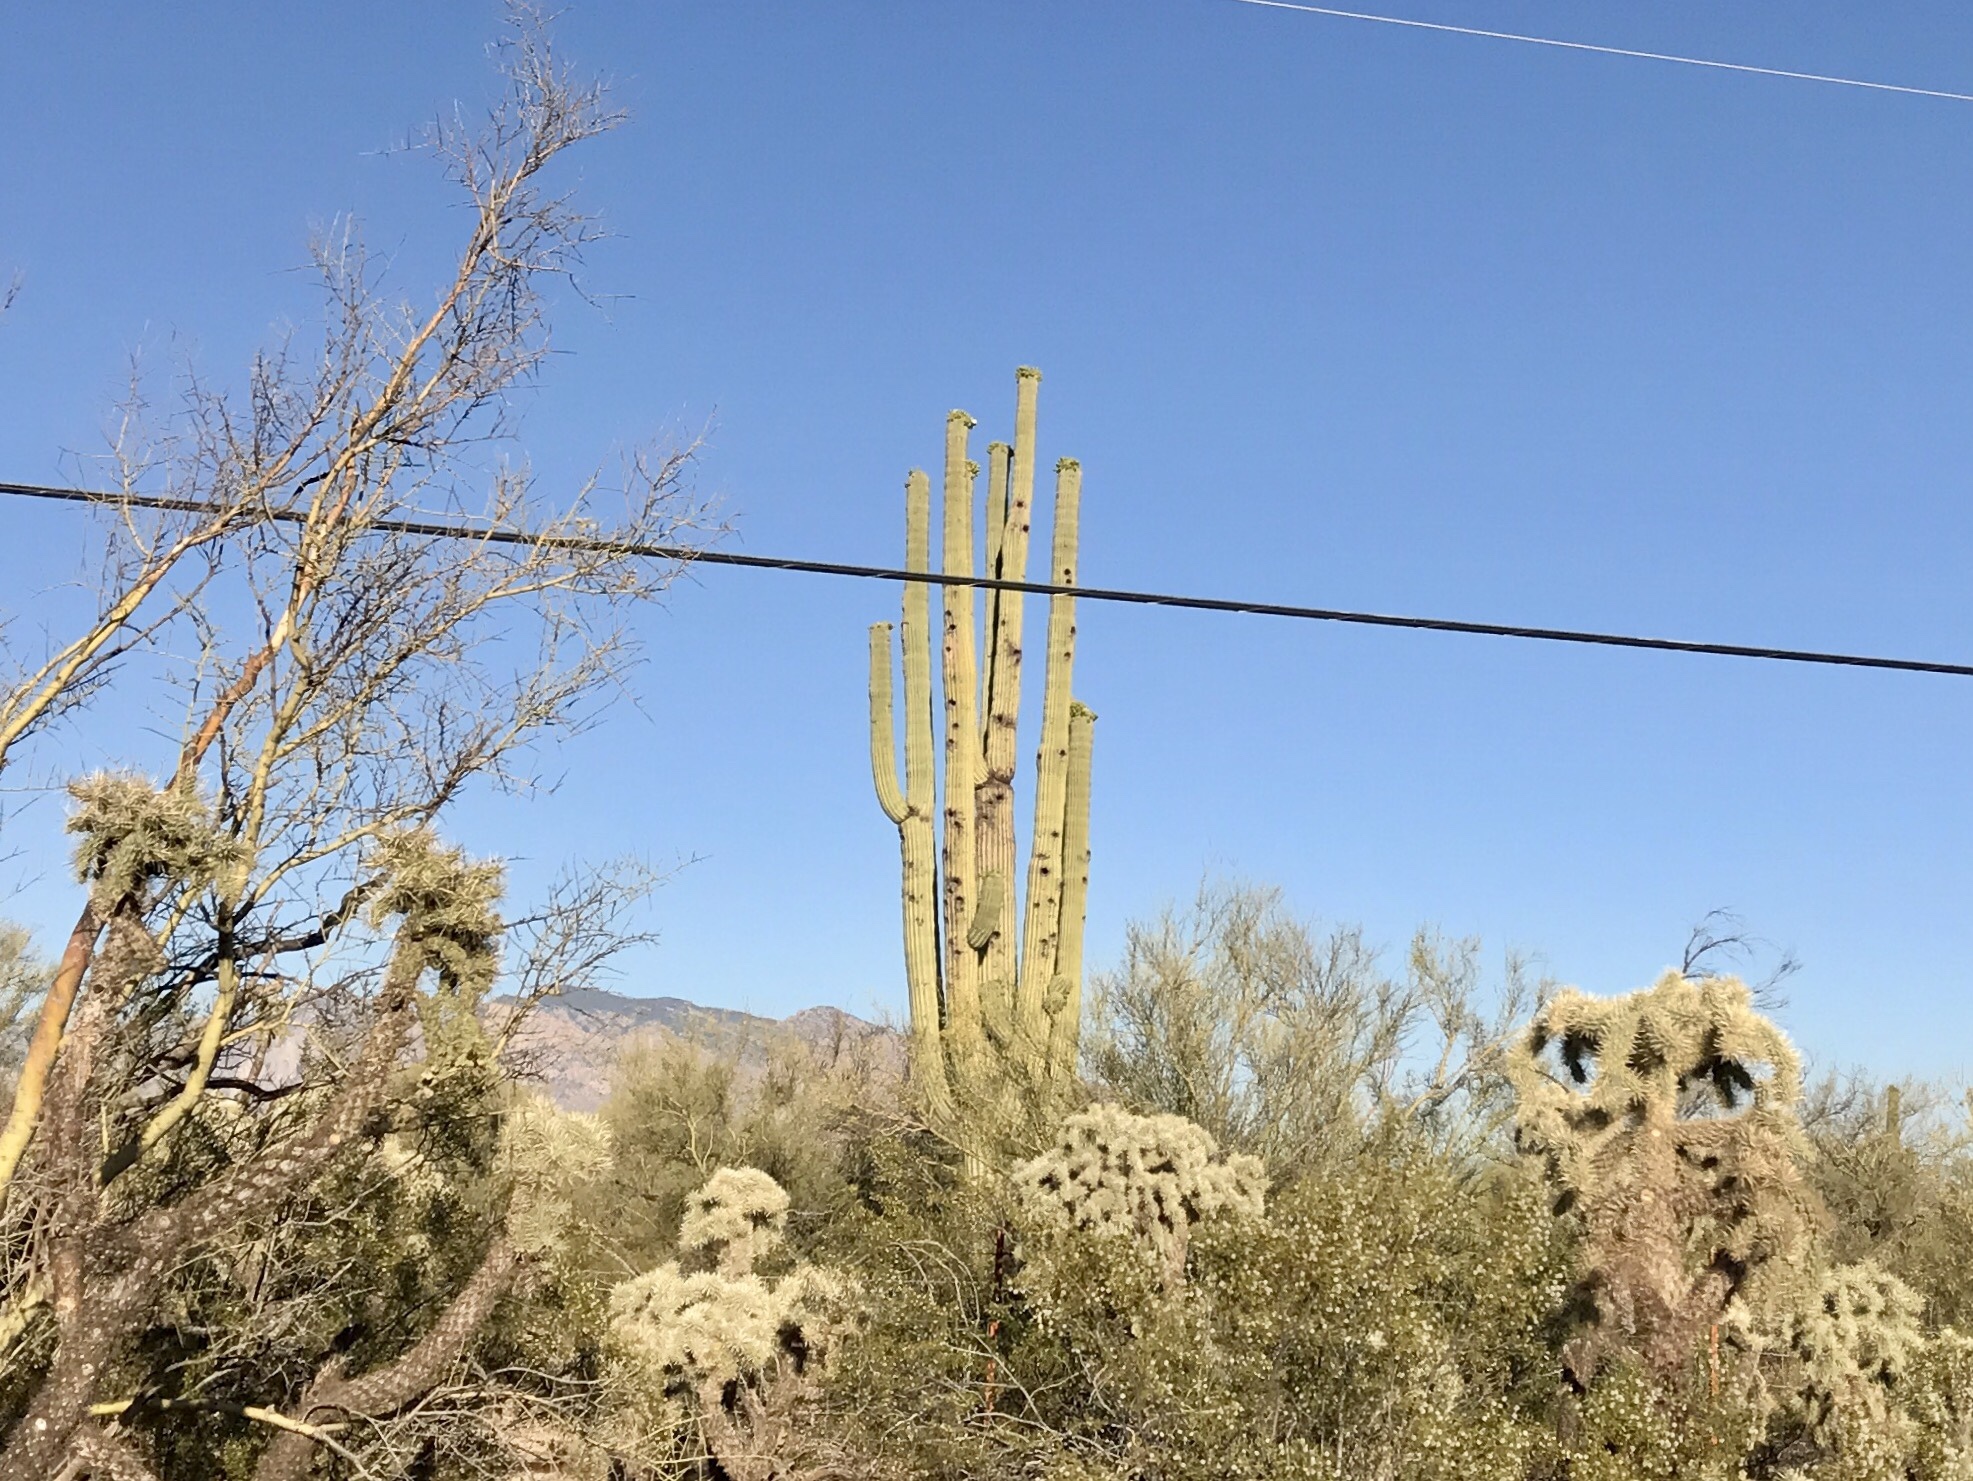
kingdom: Plantae
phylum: Tracheophyta
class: Magnoliopsida
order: Caryophyllales
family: Cactaceae
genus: Carnegiea
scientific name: Carnegiea gigantea
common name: Saguaro
